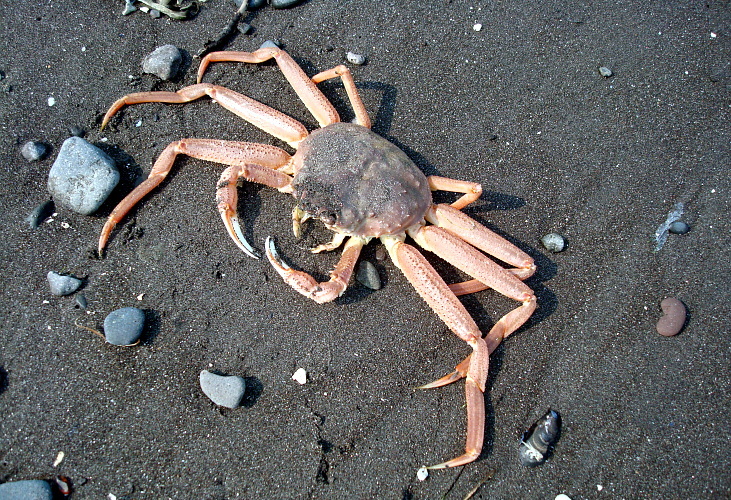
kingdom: Animalia
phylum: Arthropoda
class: Malacostraca
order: Decapoda
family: Oregoniidae
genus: Chionoecetes
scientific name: Chionoecetes bairdi
